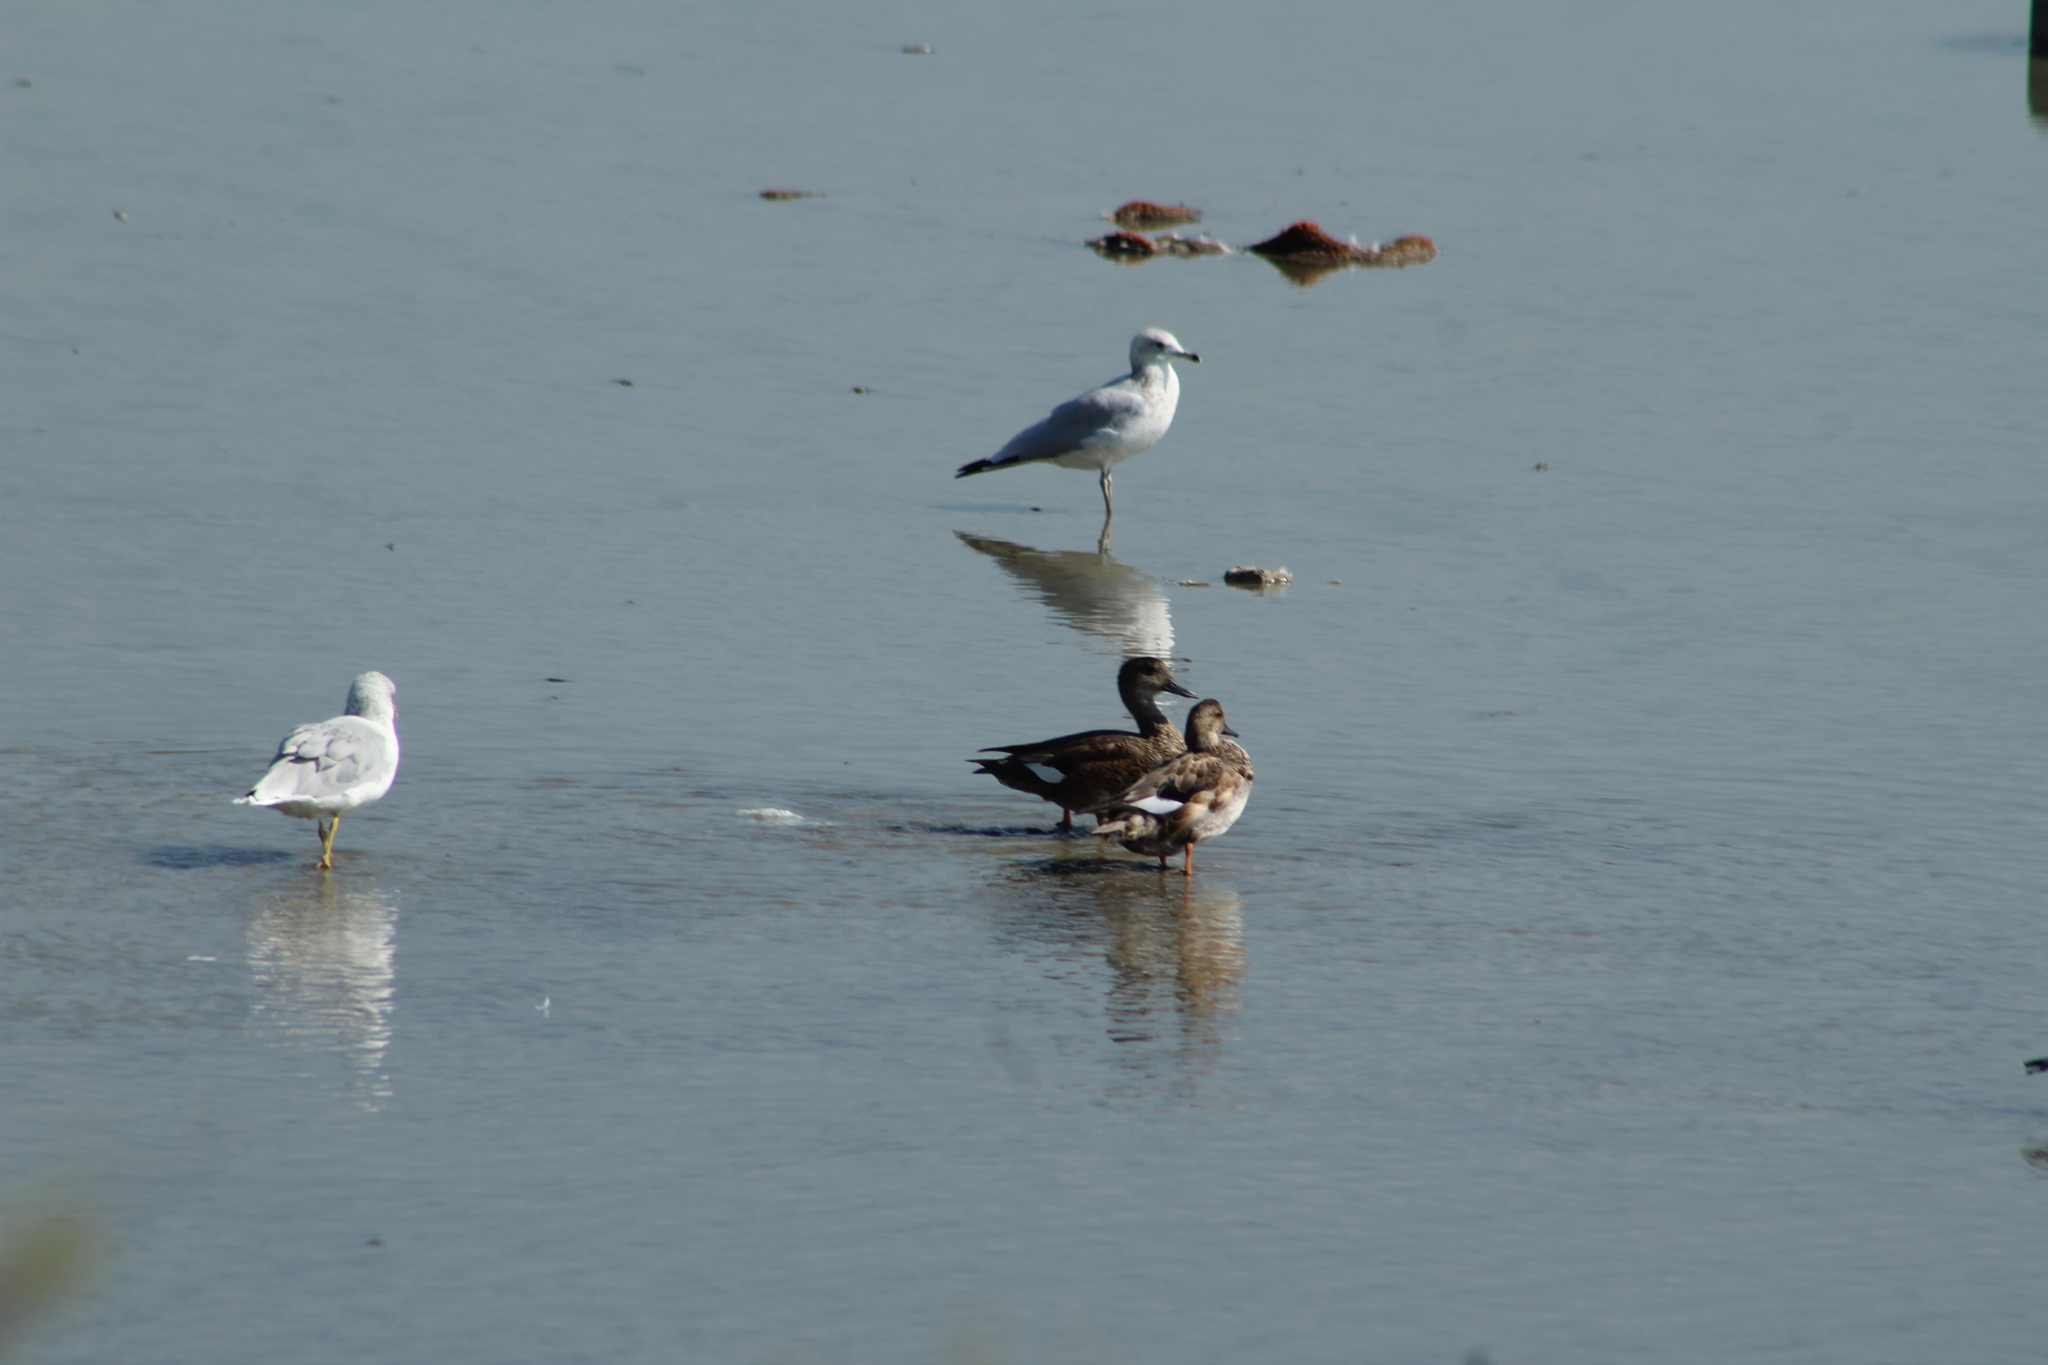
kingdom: Animalia
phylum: Chordata
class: Aves
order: Anseriformes
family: Anatidae
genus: Mareca
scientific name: Mareca strepera
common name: Gadwall
